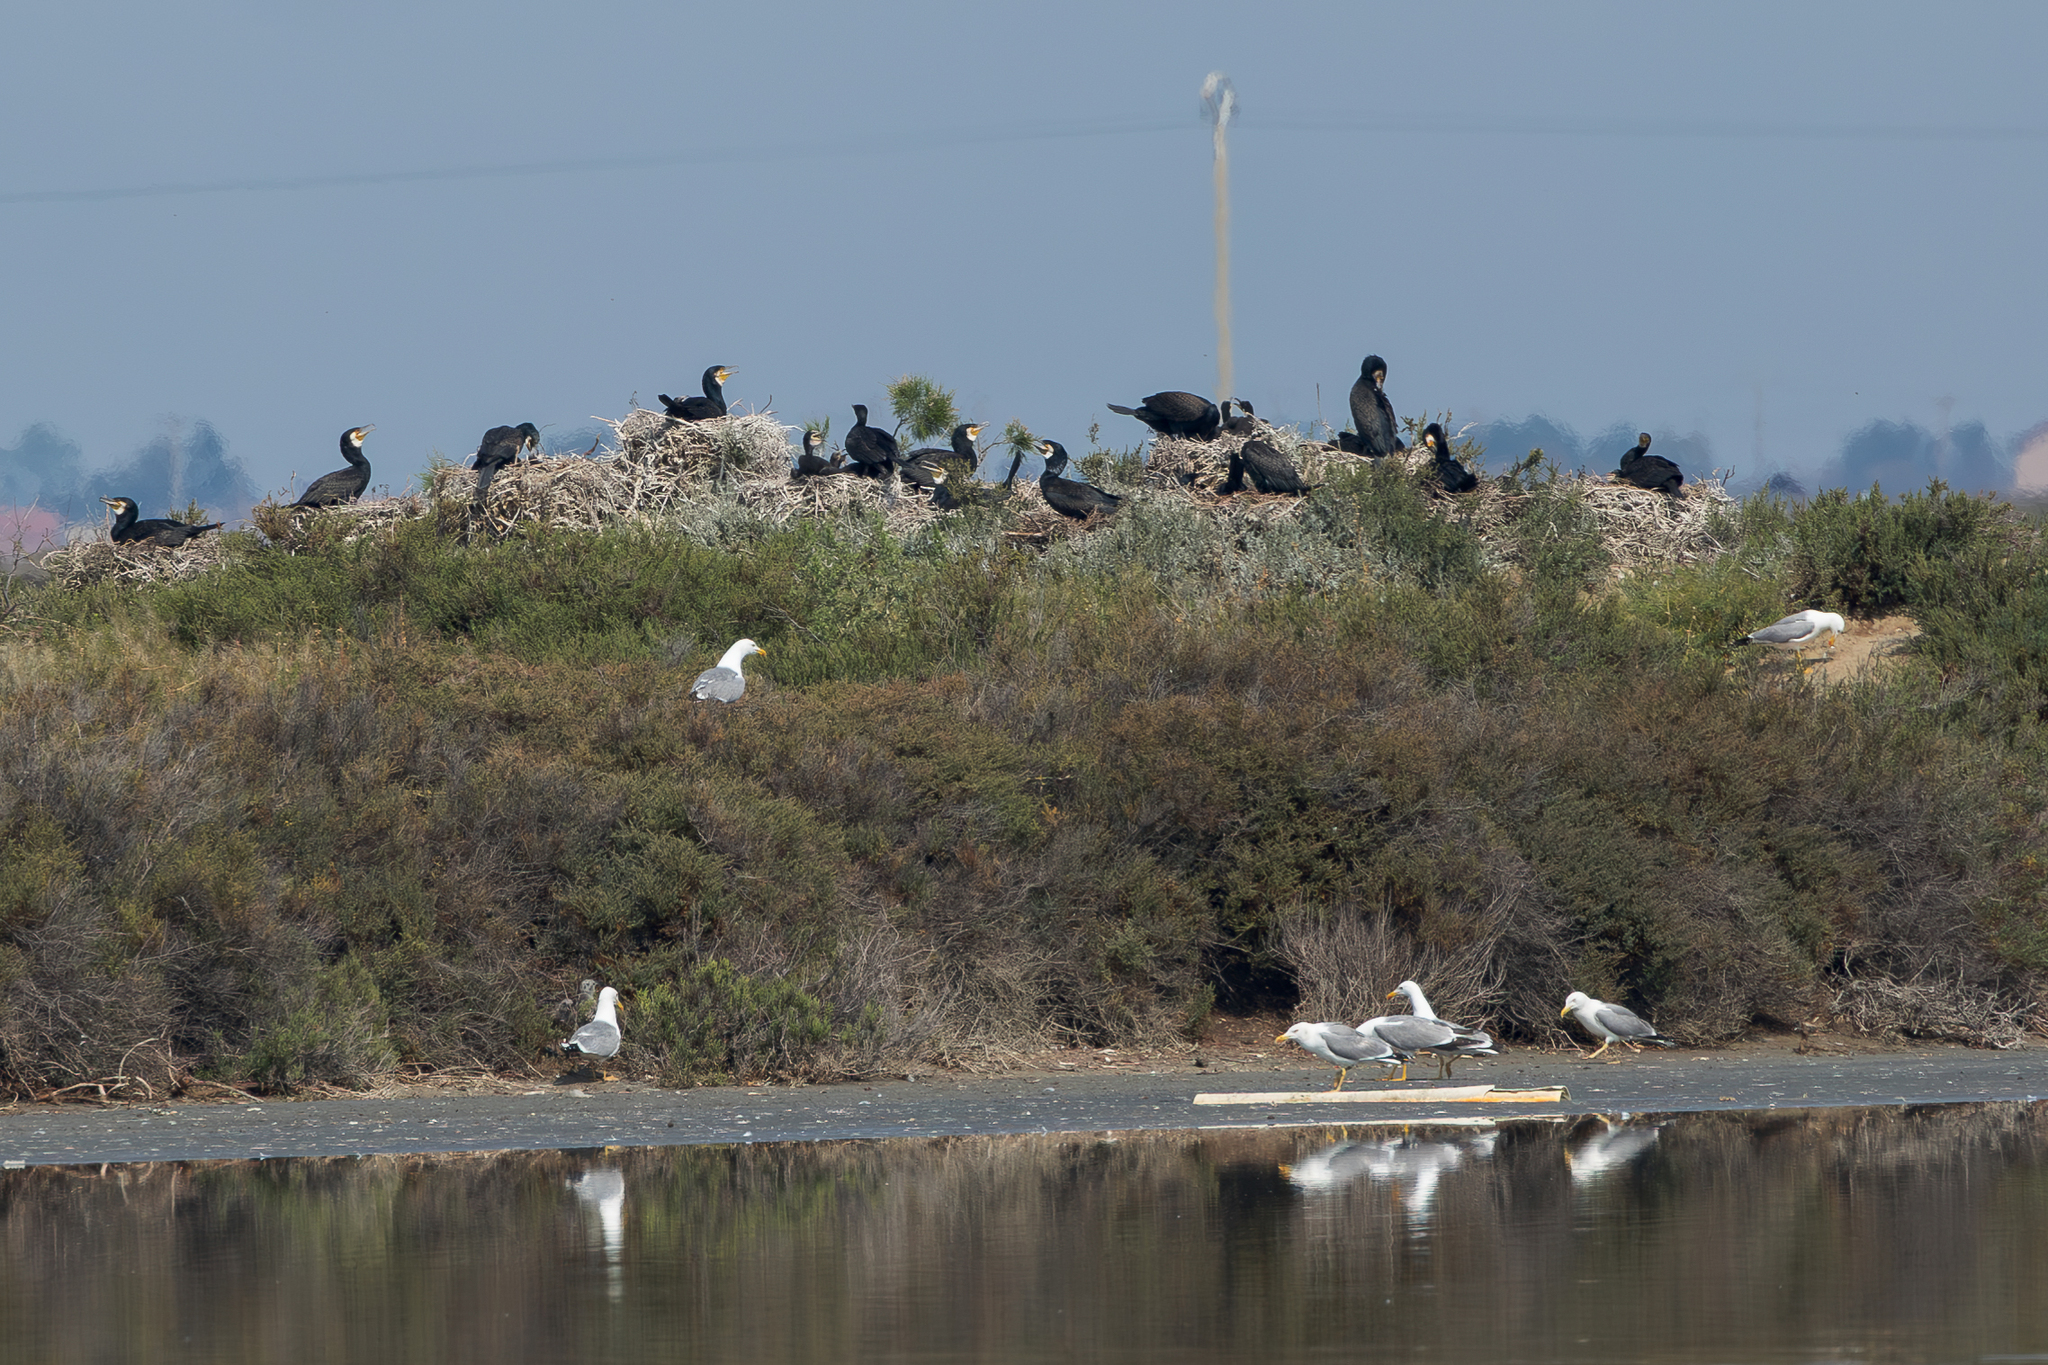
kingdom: Animalia
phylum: Chordata
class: Aves
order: Charadriiformes
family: Laridae
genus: Larus
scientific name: Larus michahellis
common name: Yellow-legged gull
